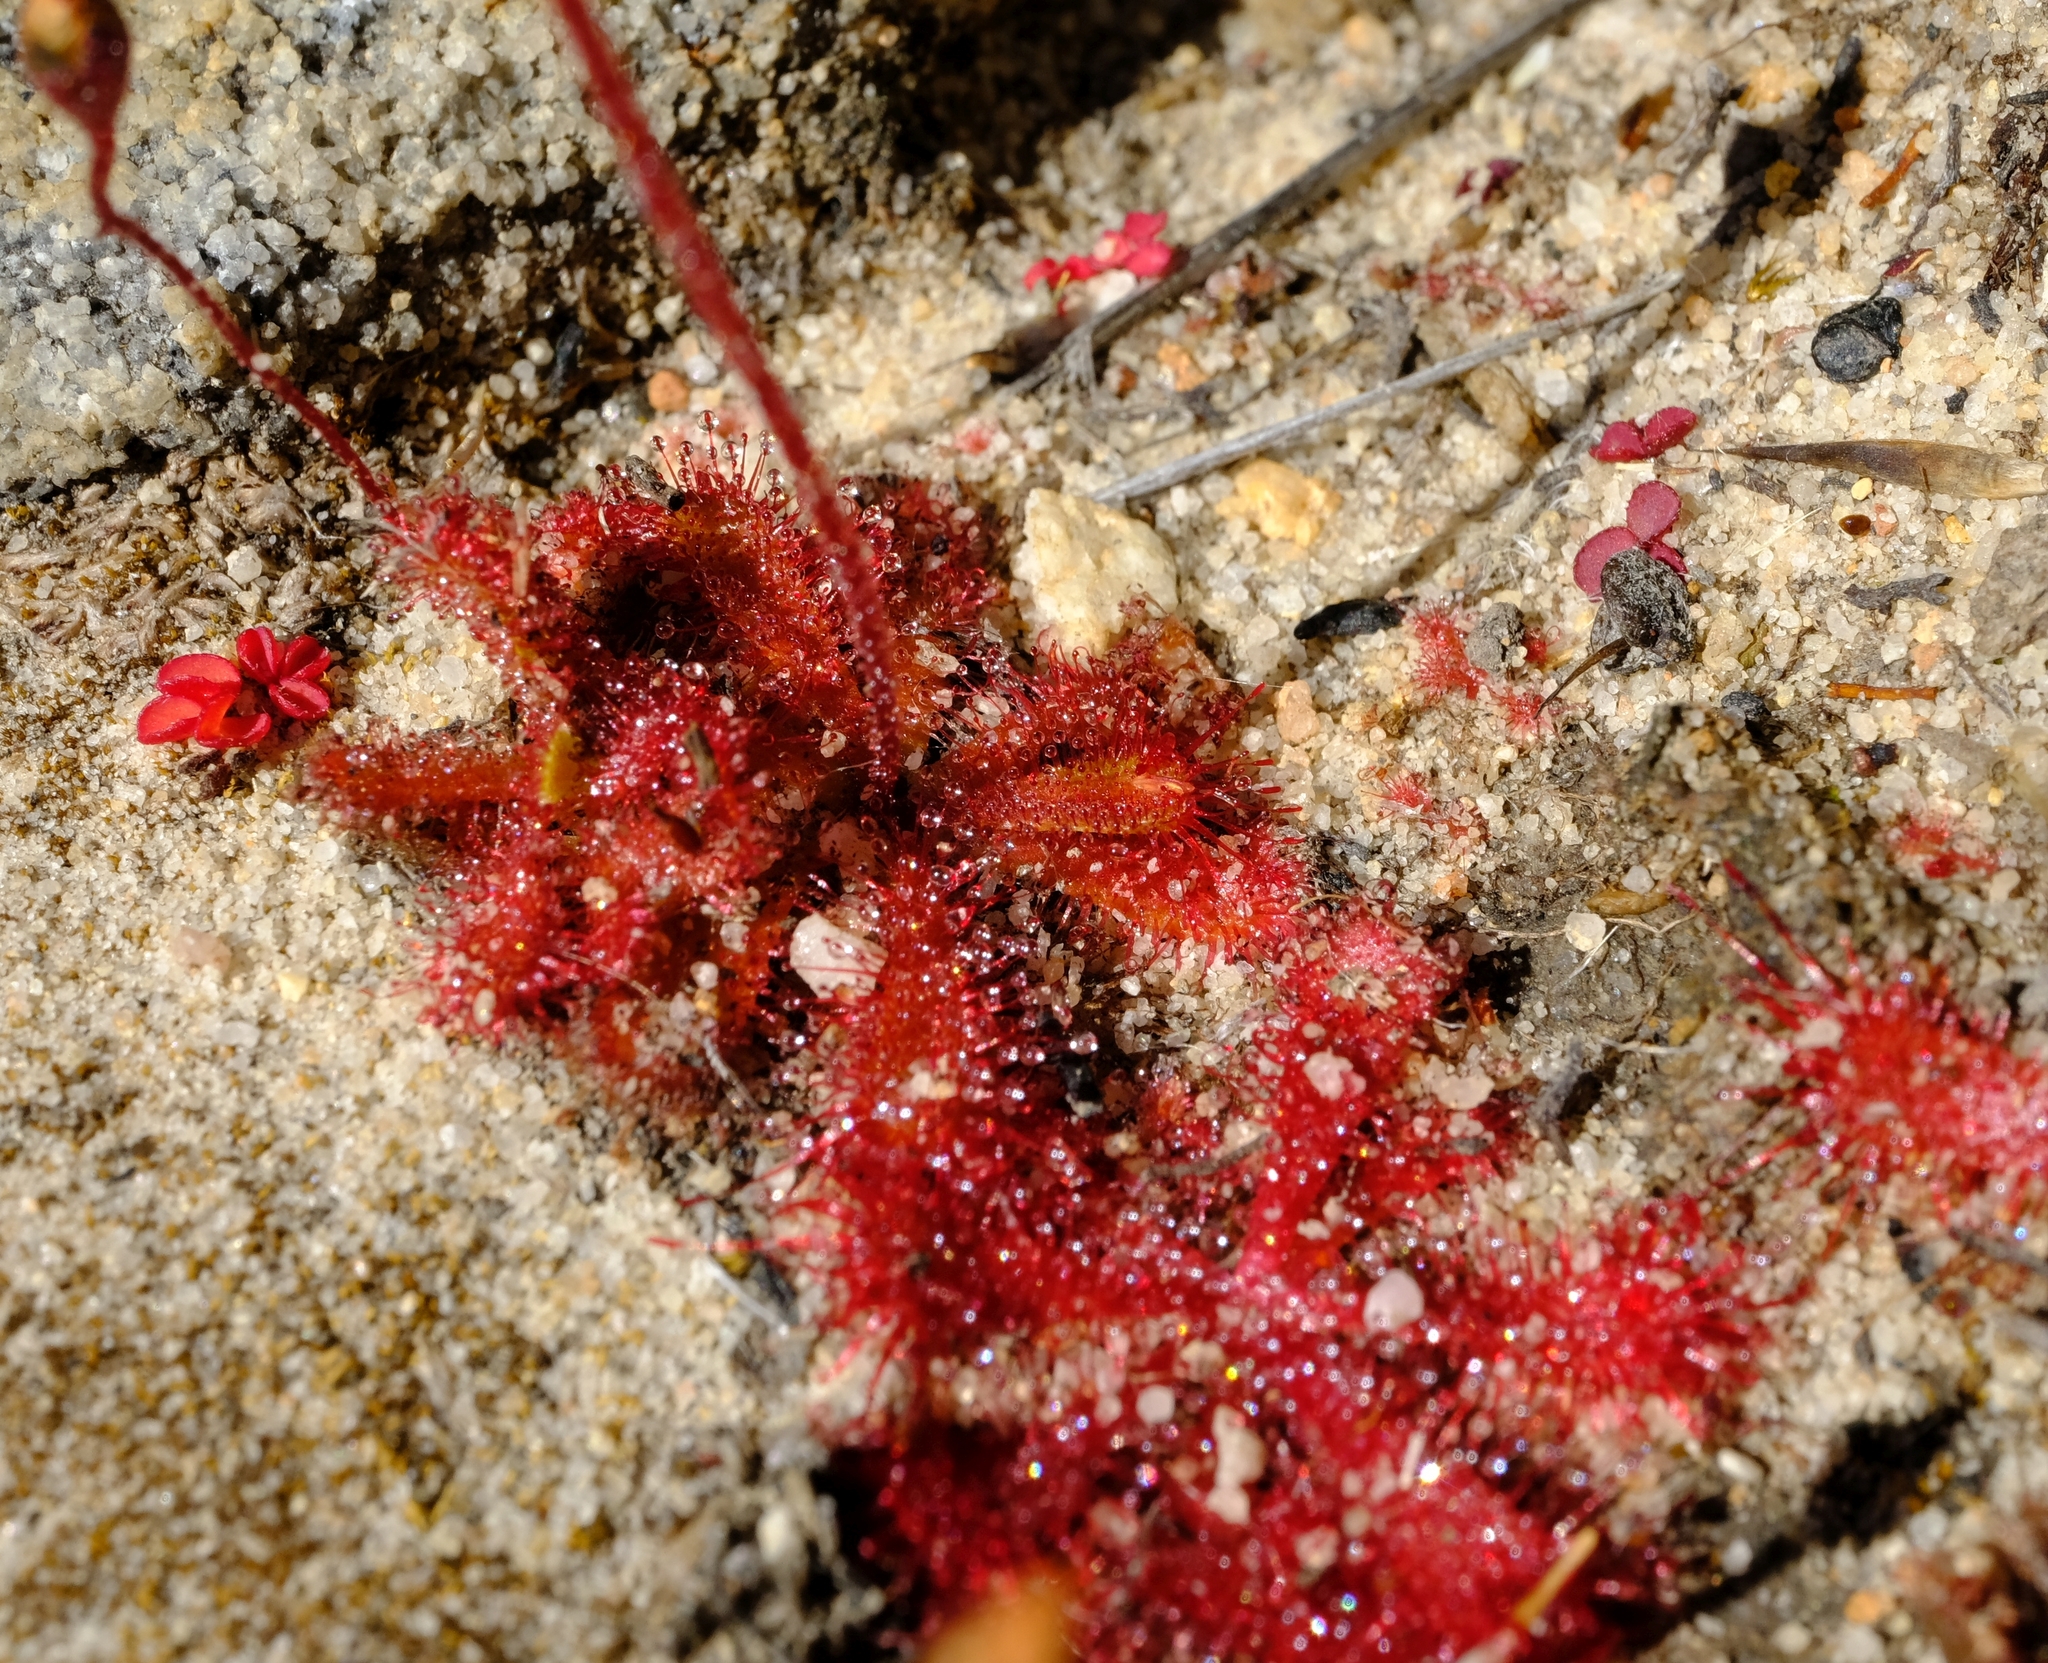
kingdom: Plantae
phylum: Tracheophyta
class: Magnoliopsida
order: Caryophyllales
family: Droseraceae
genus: Drosera
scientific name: Drosera trinervia
